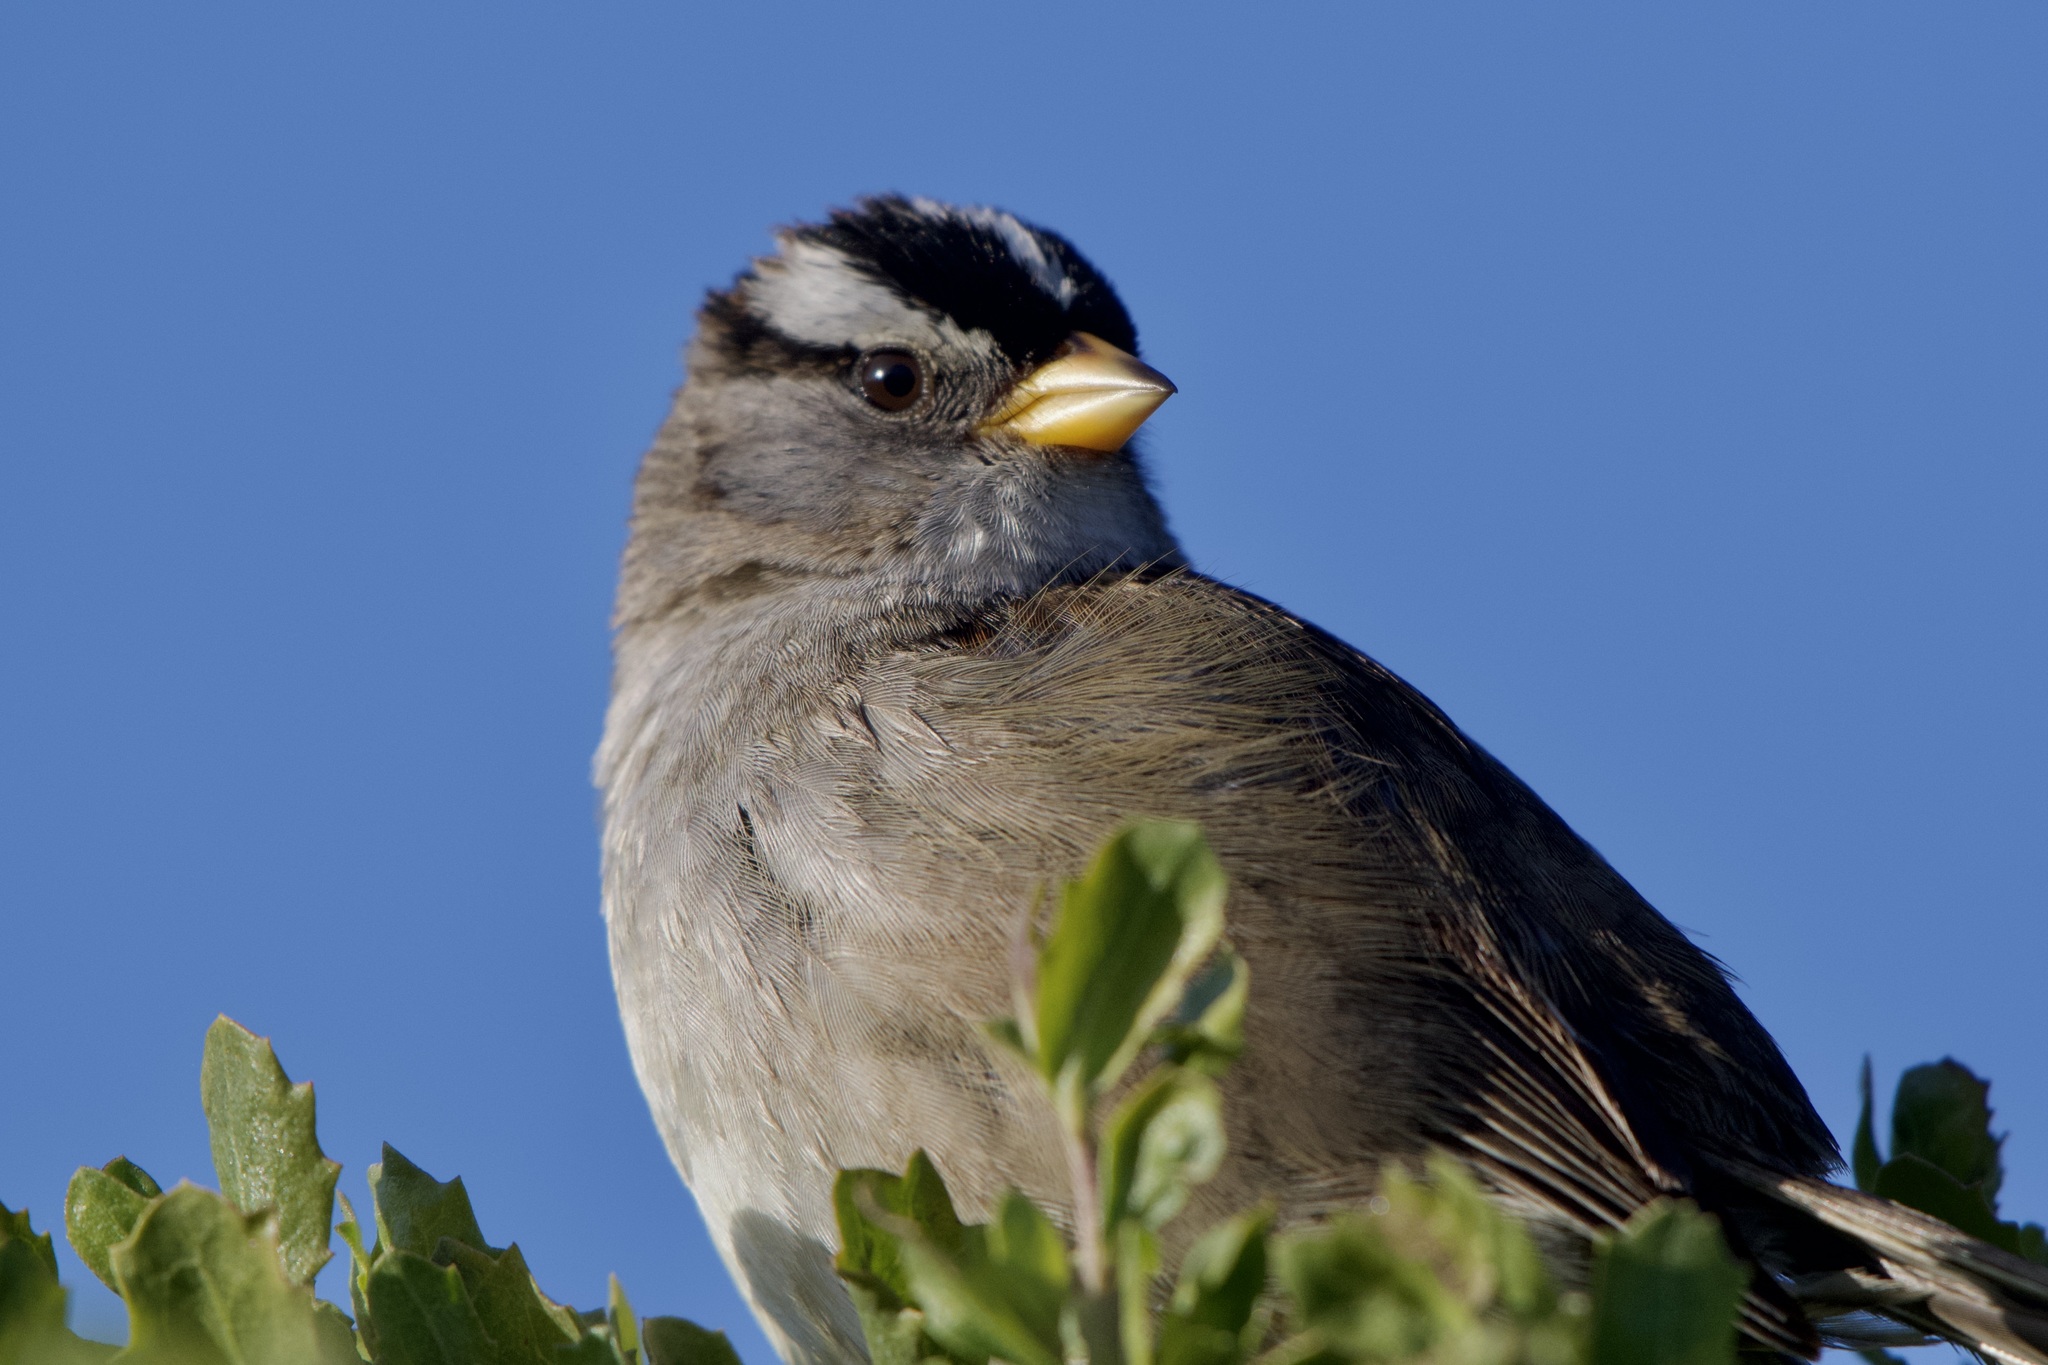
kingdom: Animalia
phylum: Chordata
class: Aves
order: Passeriformes
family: Passerellidae
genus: Zonotrichia
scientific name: Zonotrichia leucophrys
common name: White-crowned sparrow
